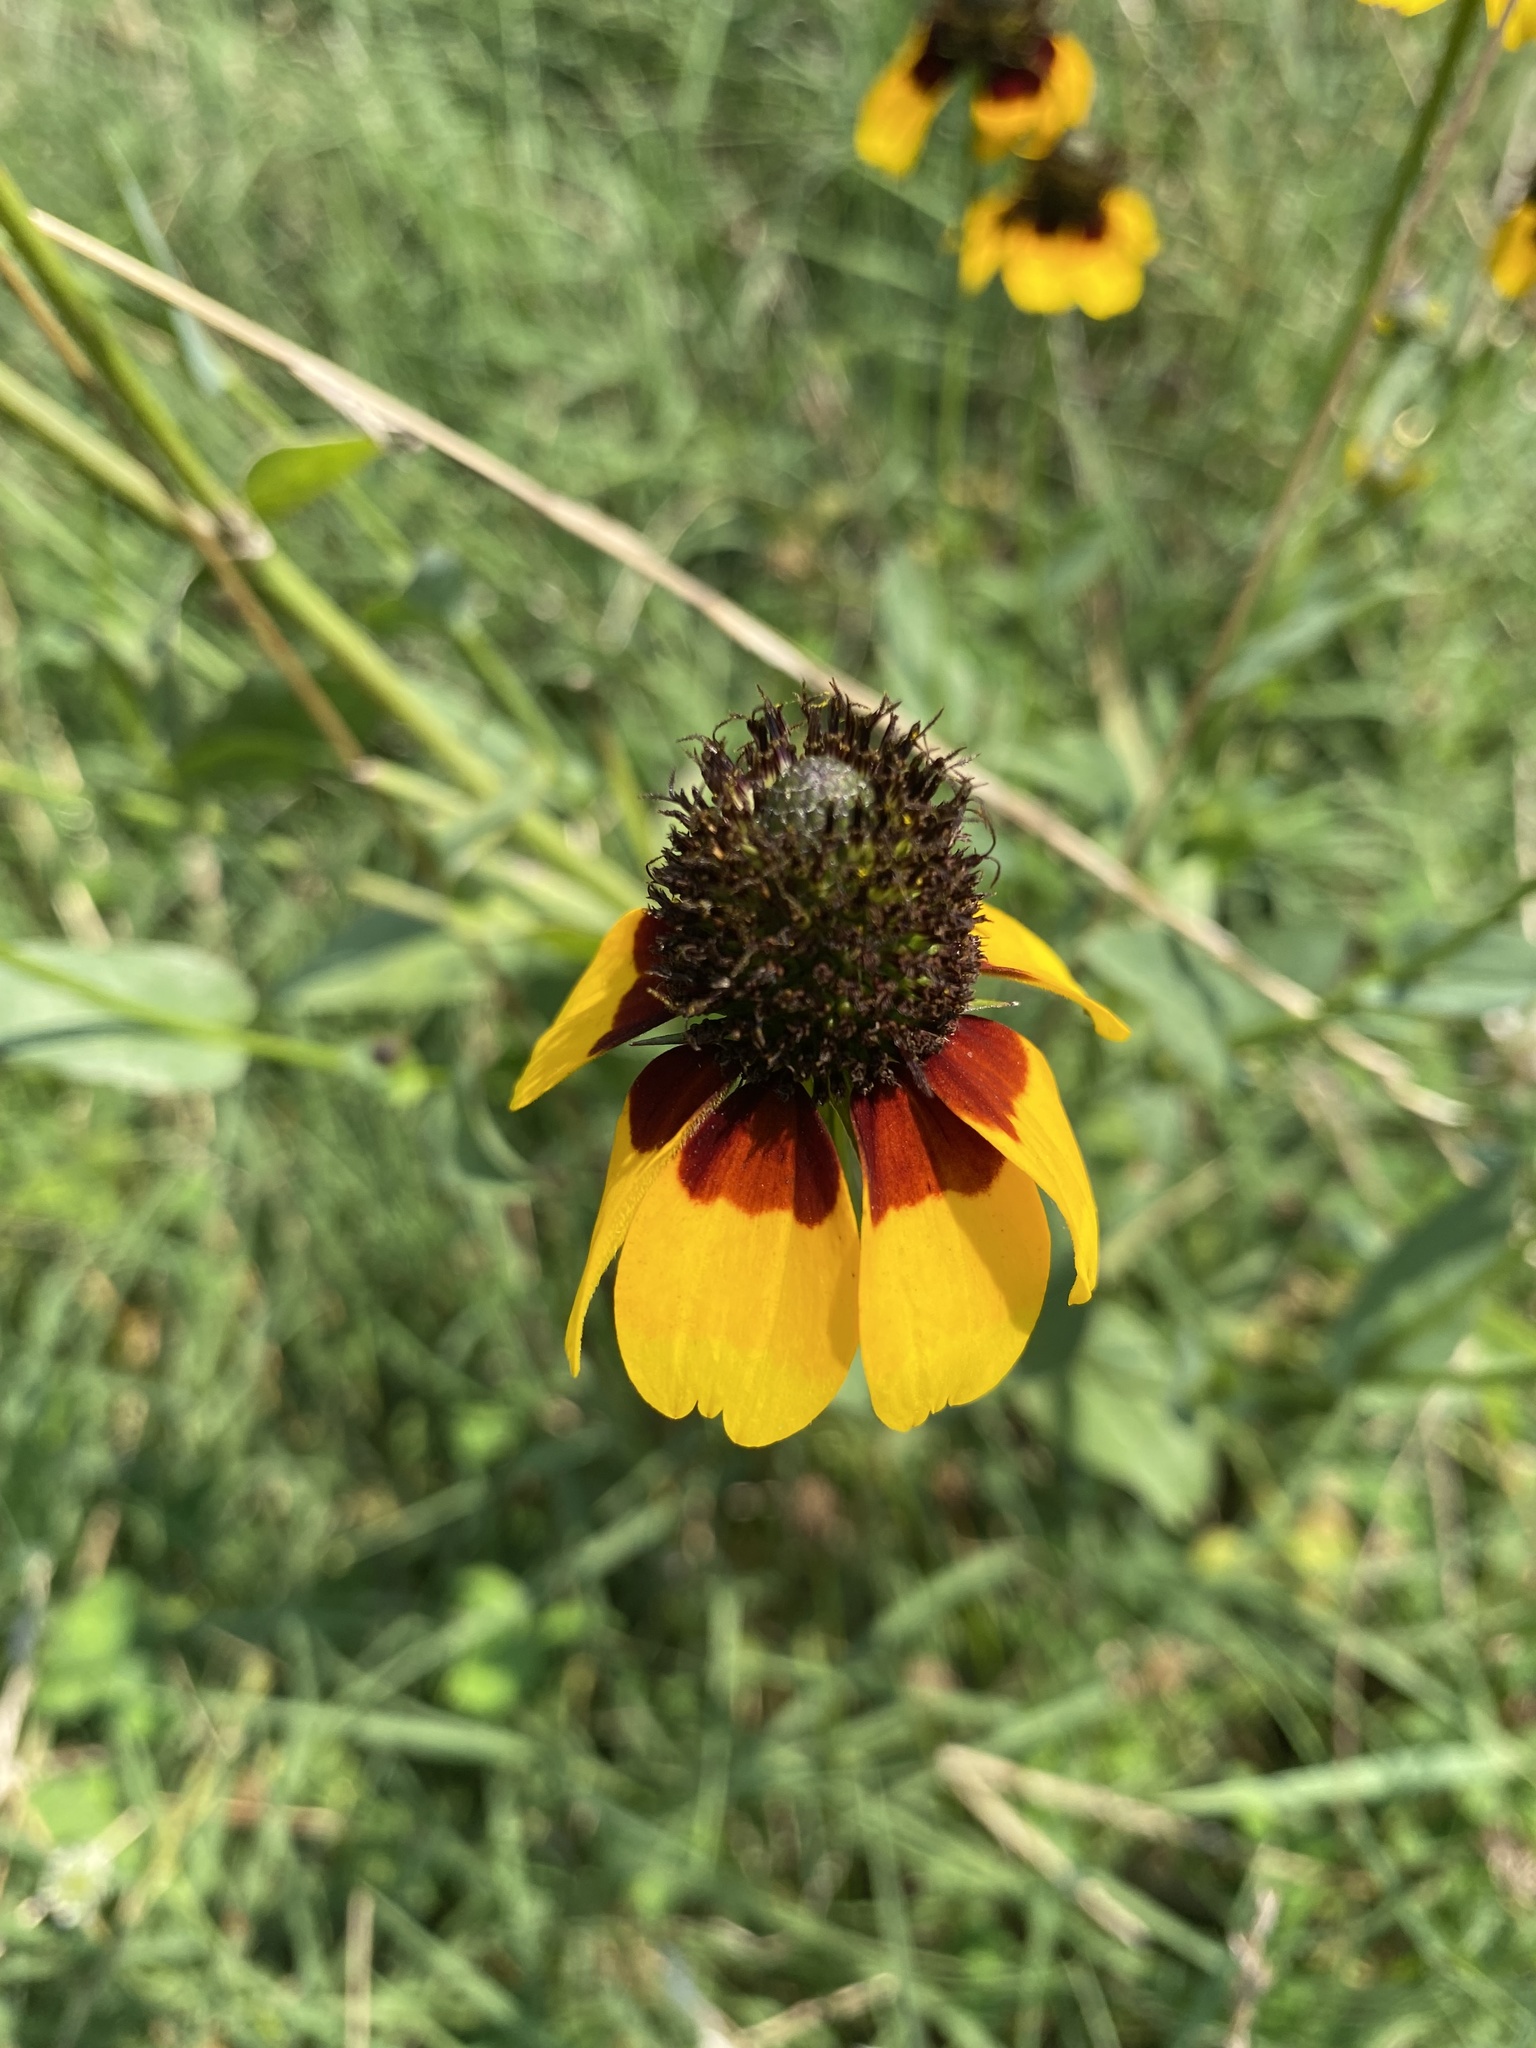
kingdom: Plantae
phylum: Tracheophyta
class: Magnoliopsida
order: Asterales
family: Asteraceae
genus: Rudbeckia
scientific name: Rudbeckia amplexicaulis
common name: Clasping-leaf coneflower
